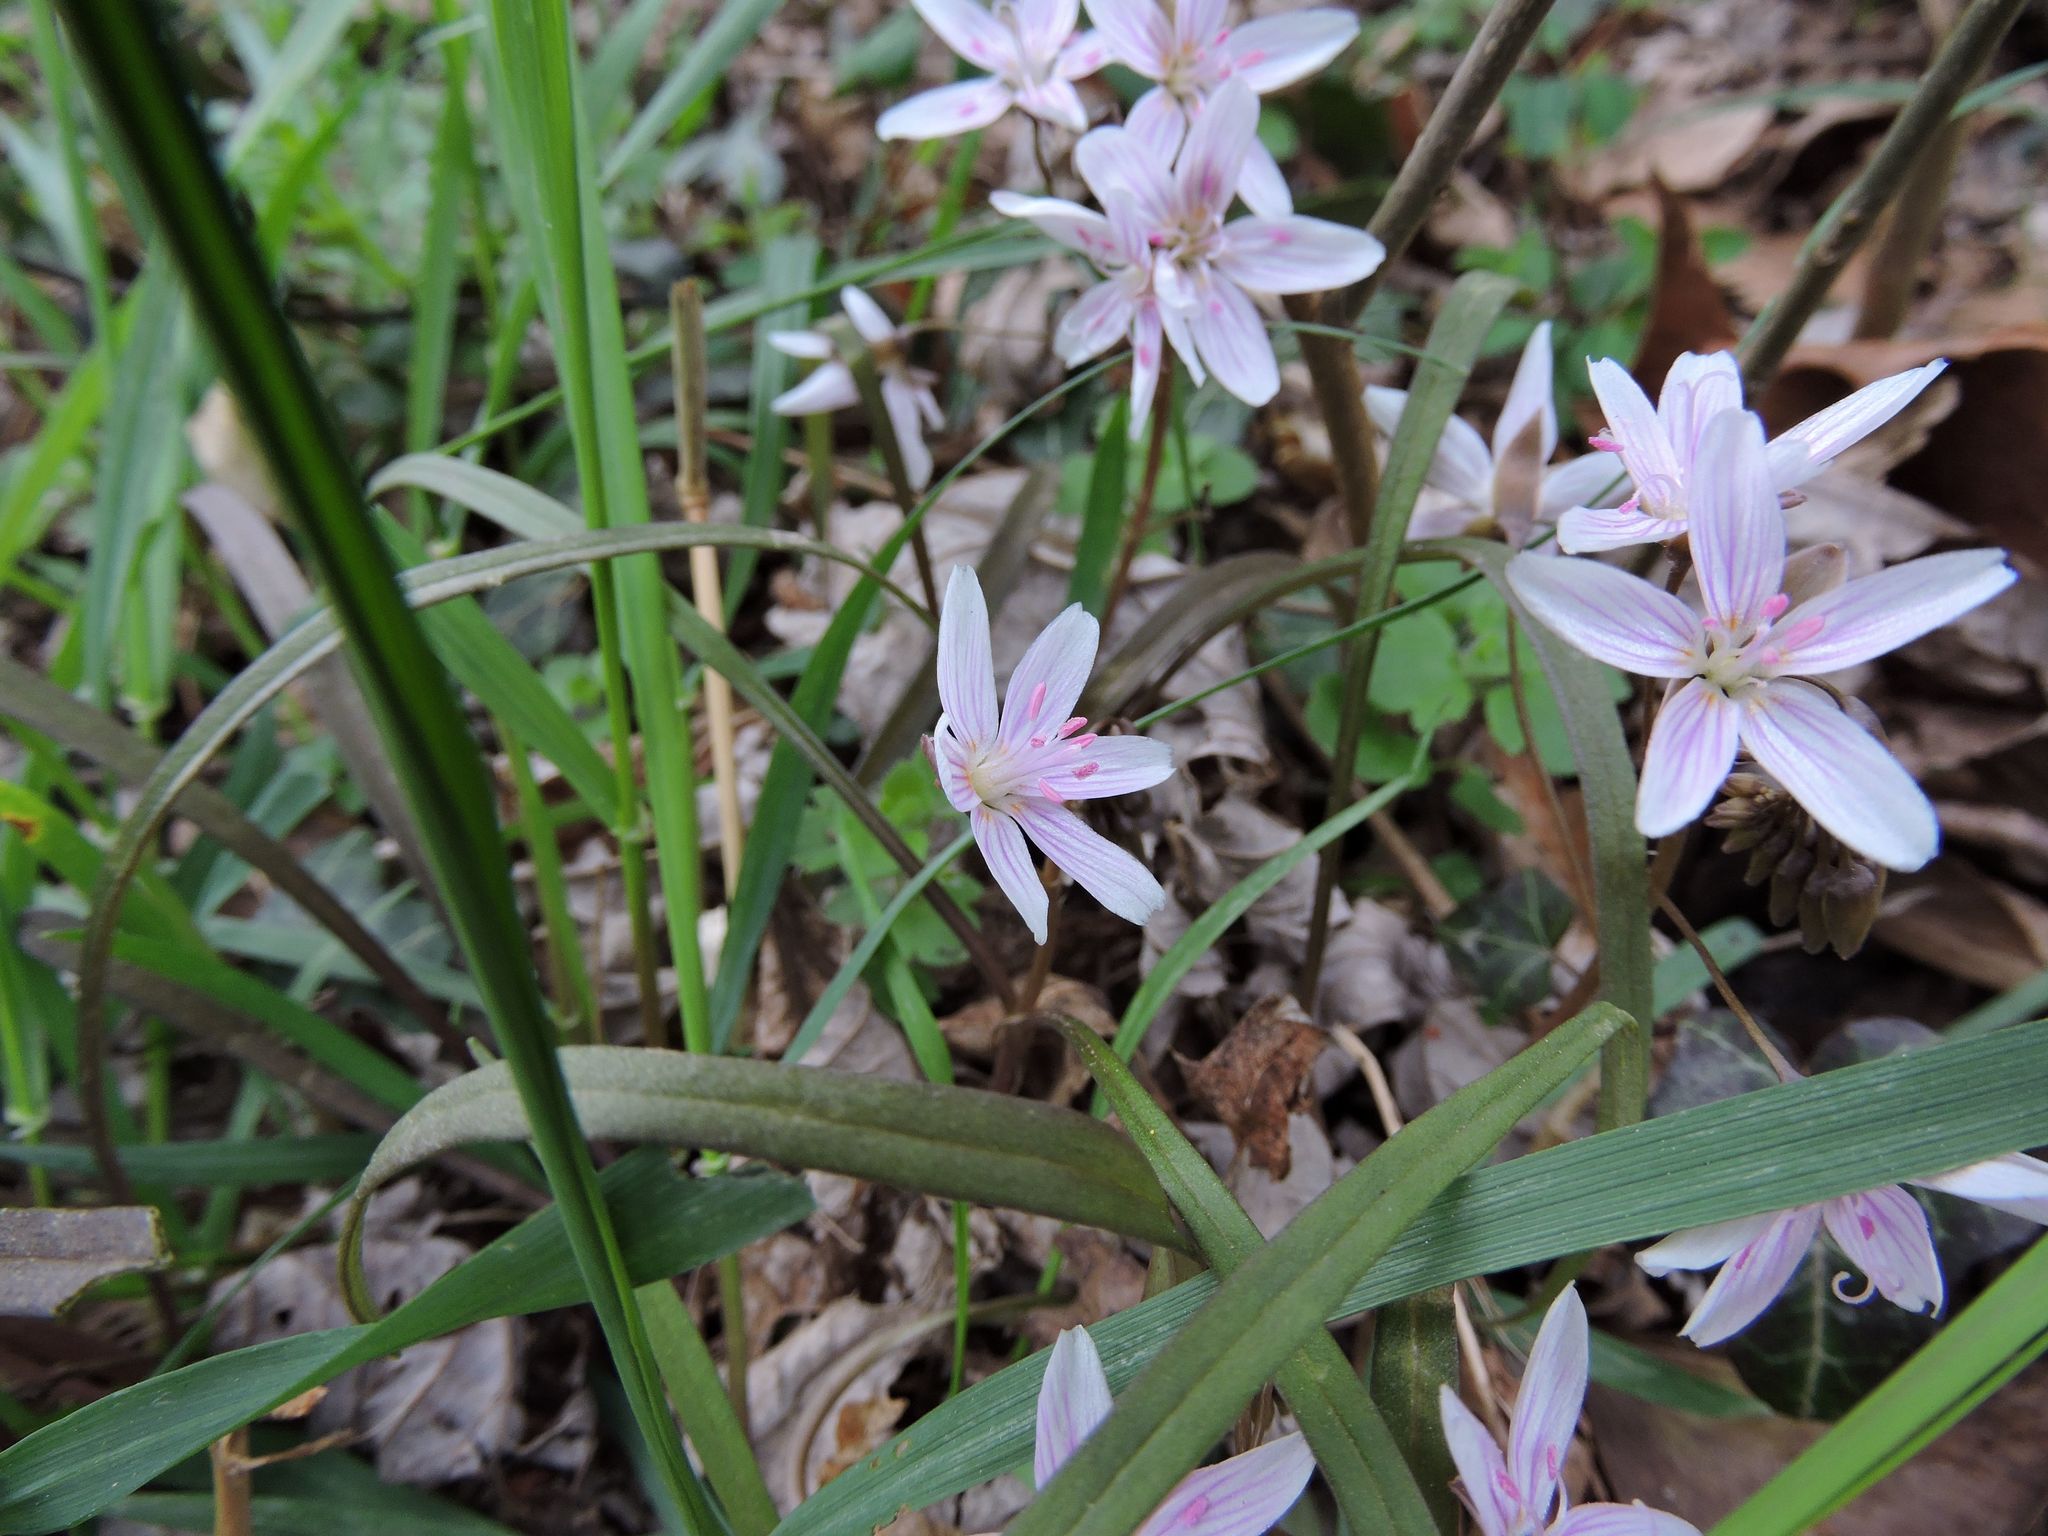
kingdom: Plantae
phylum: Tracheophyta
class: Magnoliopsida
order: Caryophyllales
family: Montiaceae
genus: Claytonia
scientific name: Claytonia virginica
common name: Virginia springbeauty
